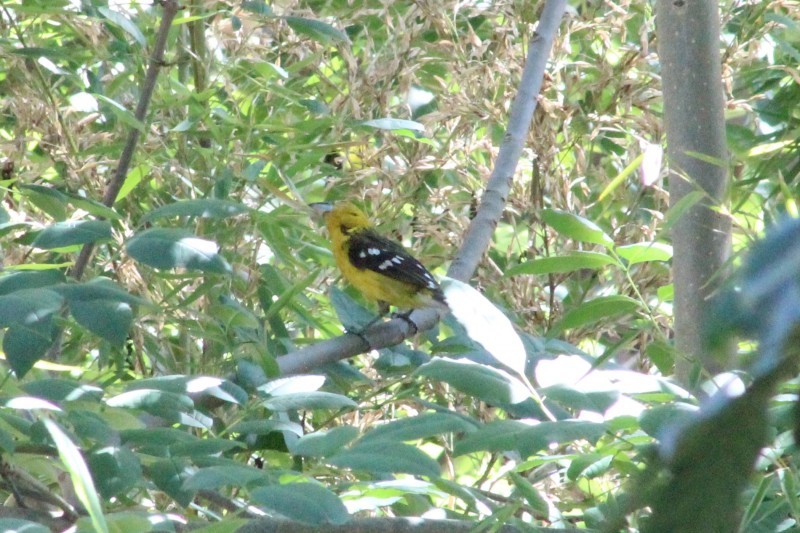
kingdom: Animalia
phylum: Chordata
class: Aves
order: Passeriformes
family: Cardinalidae
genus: Pheucticus
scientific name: Pheucticus chrysogaster
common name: Golden grosbeak
